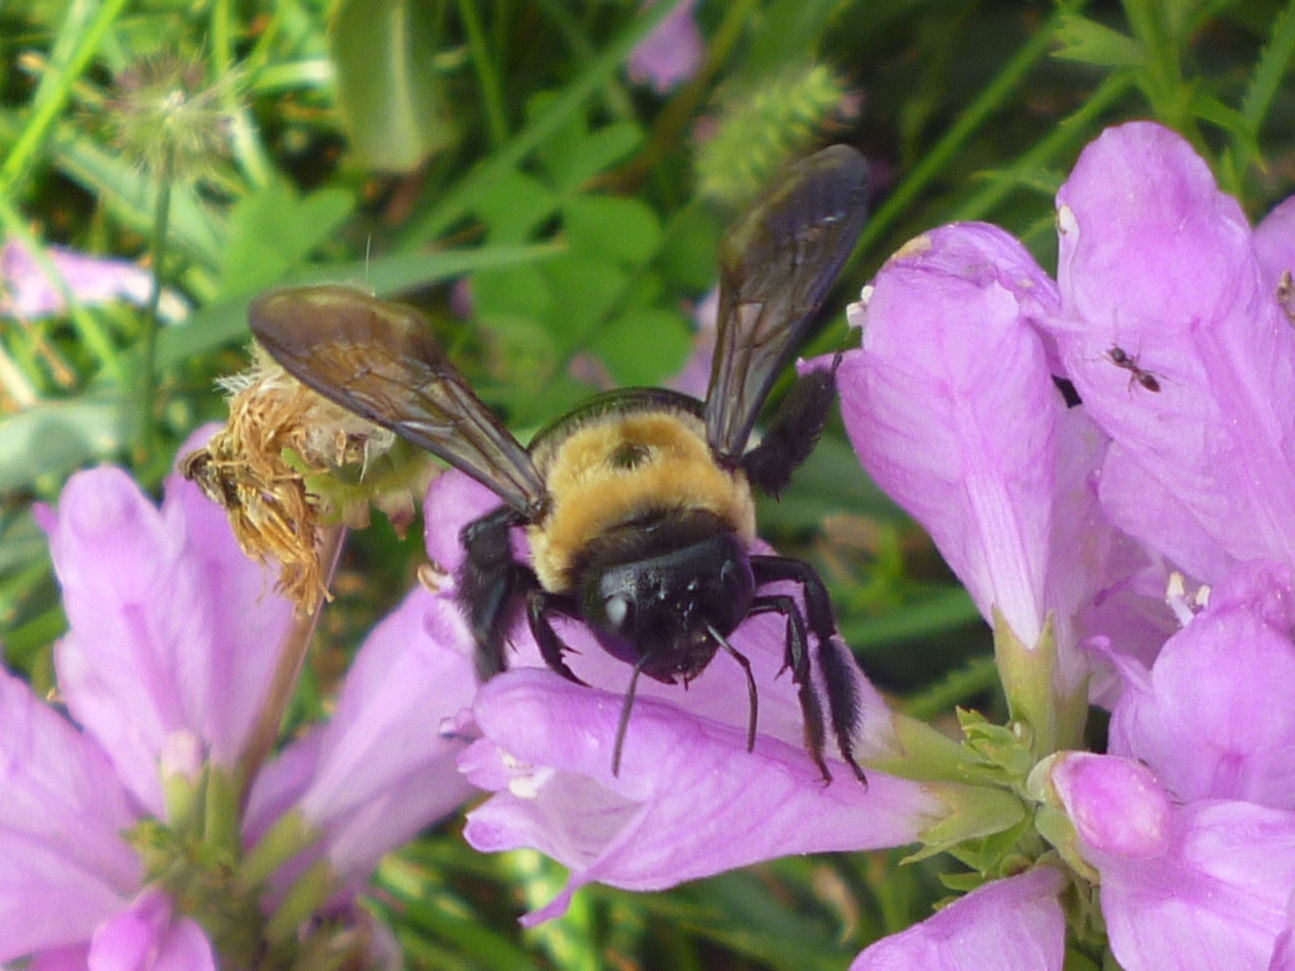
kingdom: Animalia
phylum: Arthropoda
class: Insecta
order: Hymenoptera
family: Apidae
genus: Xylocopa
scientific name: Xylocopa virginica
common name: Carpenter bee
